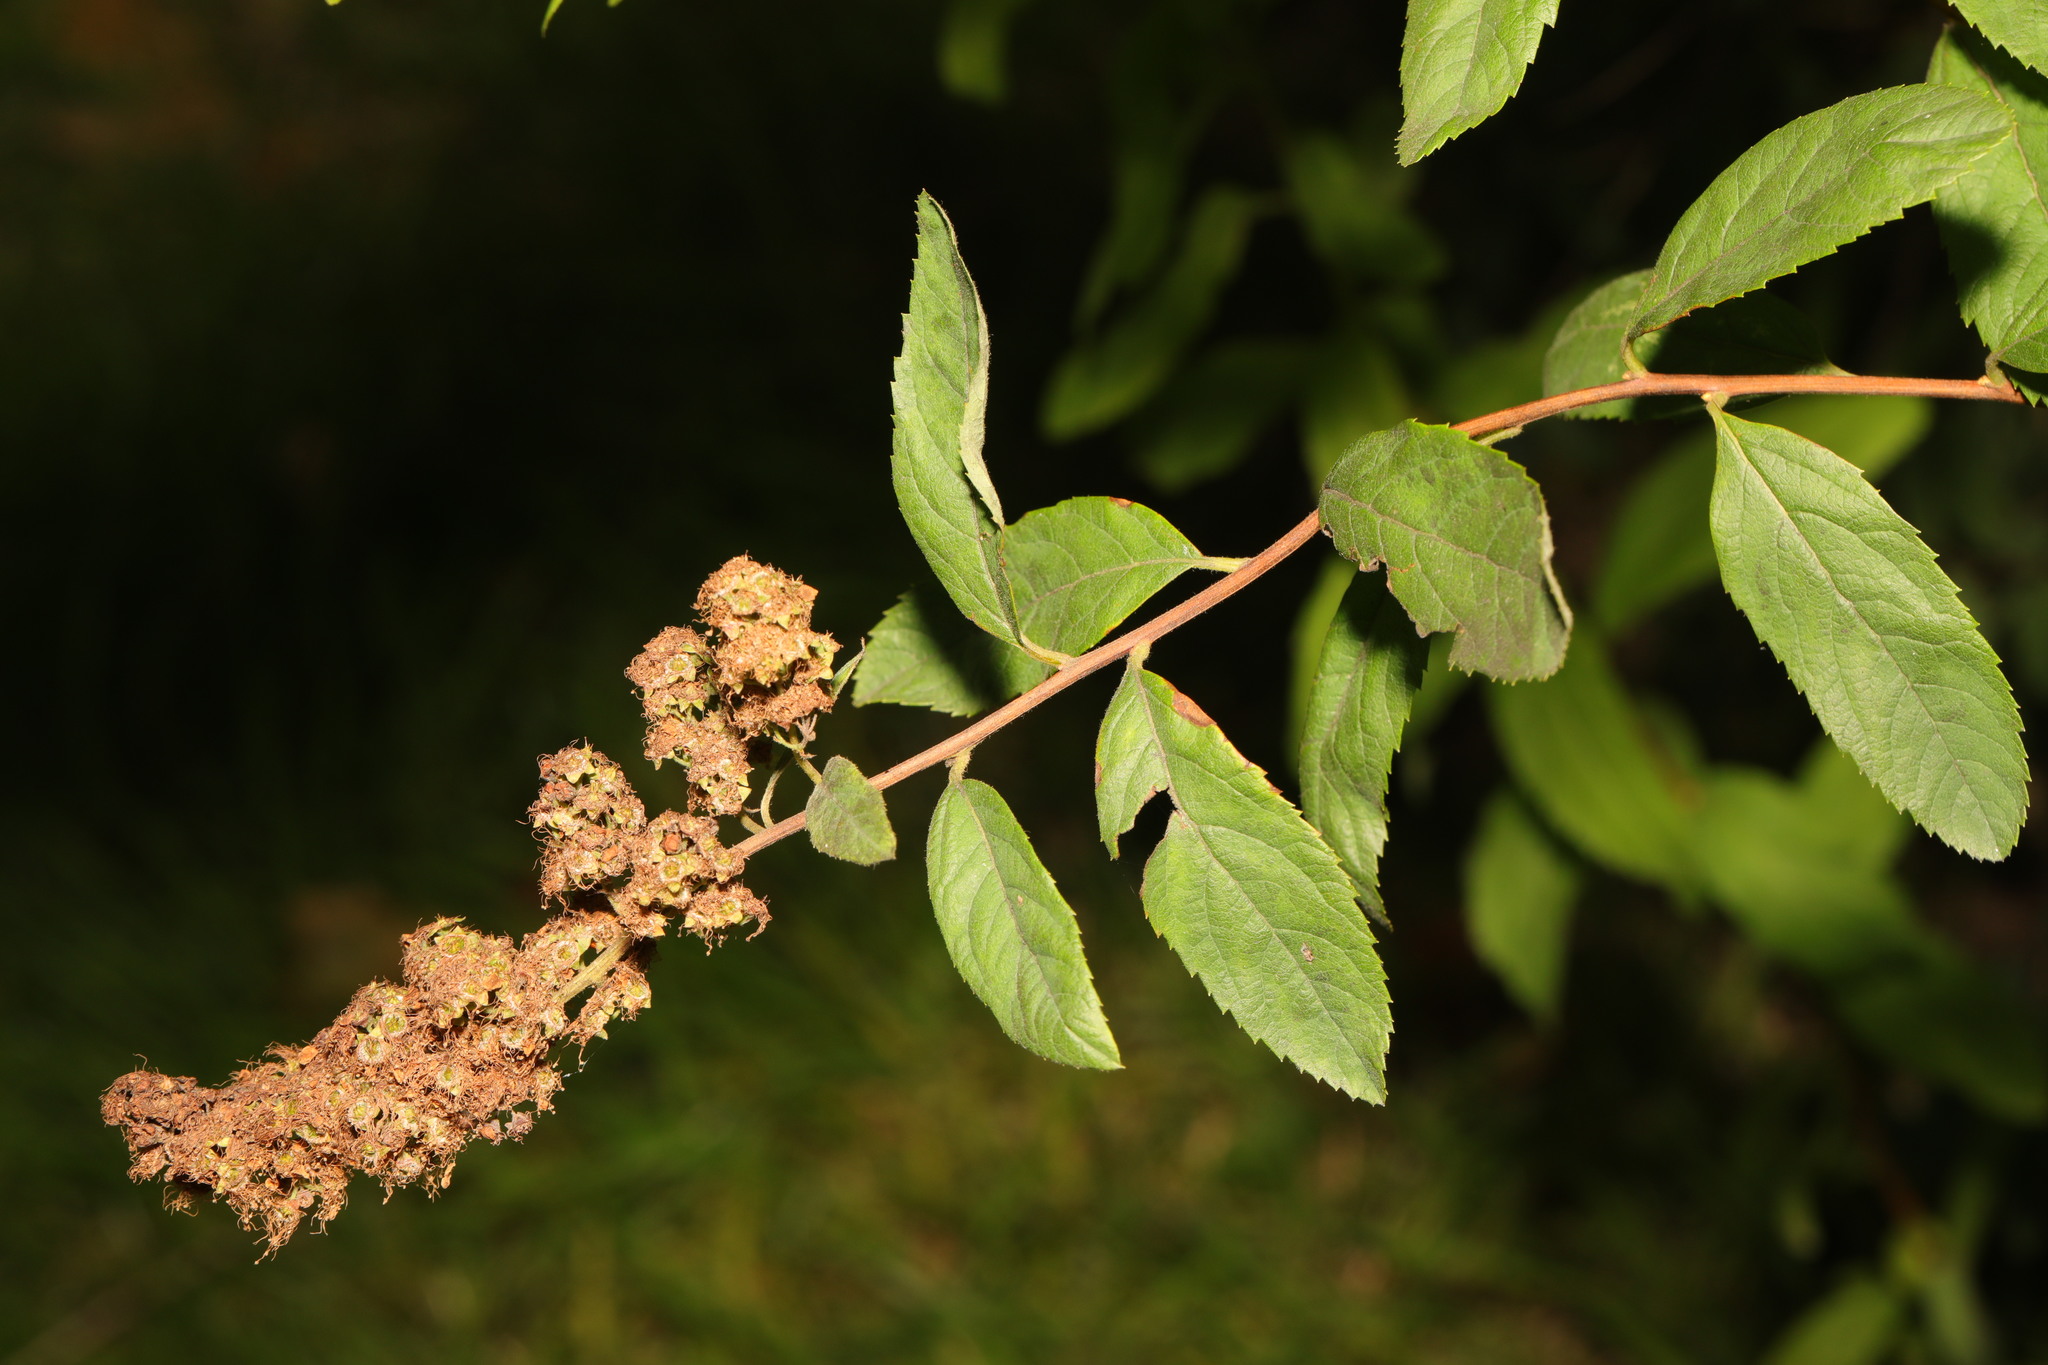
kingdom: Plantae
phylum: Tracheophyta
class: Magnoliopsida
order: Rosales
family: Rosaceae
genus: Spiraea
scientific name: Spiraea douglasii
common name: Steeplebush
